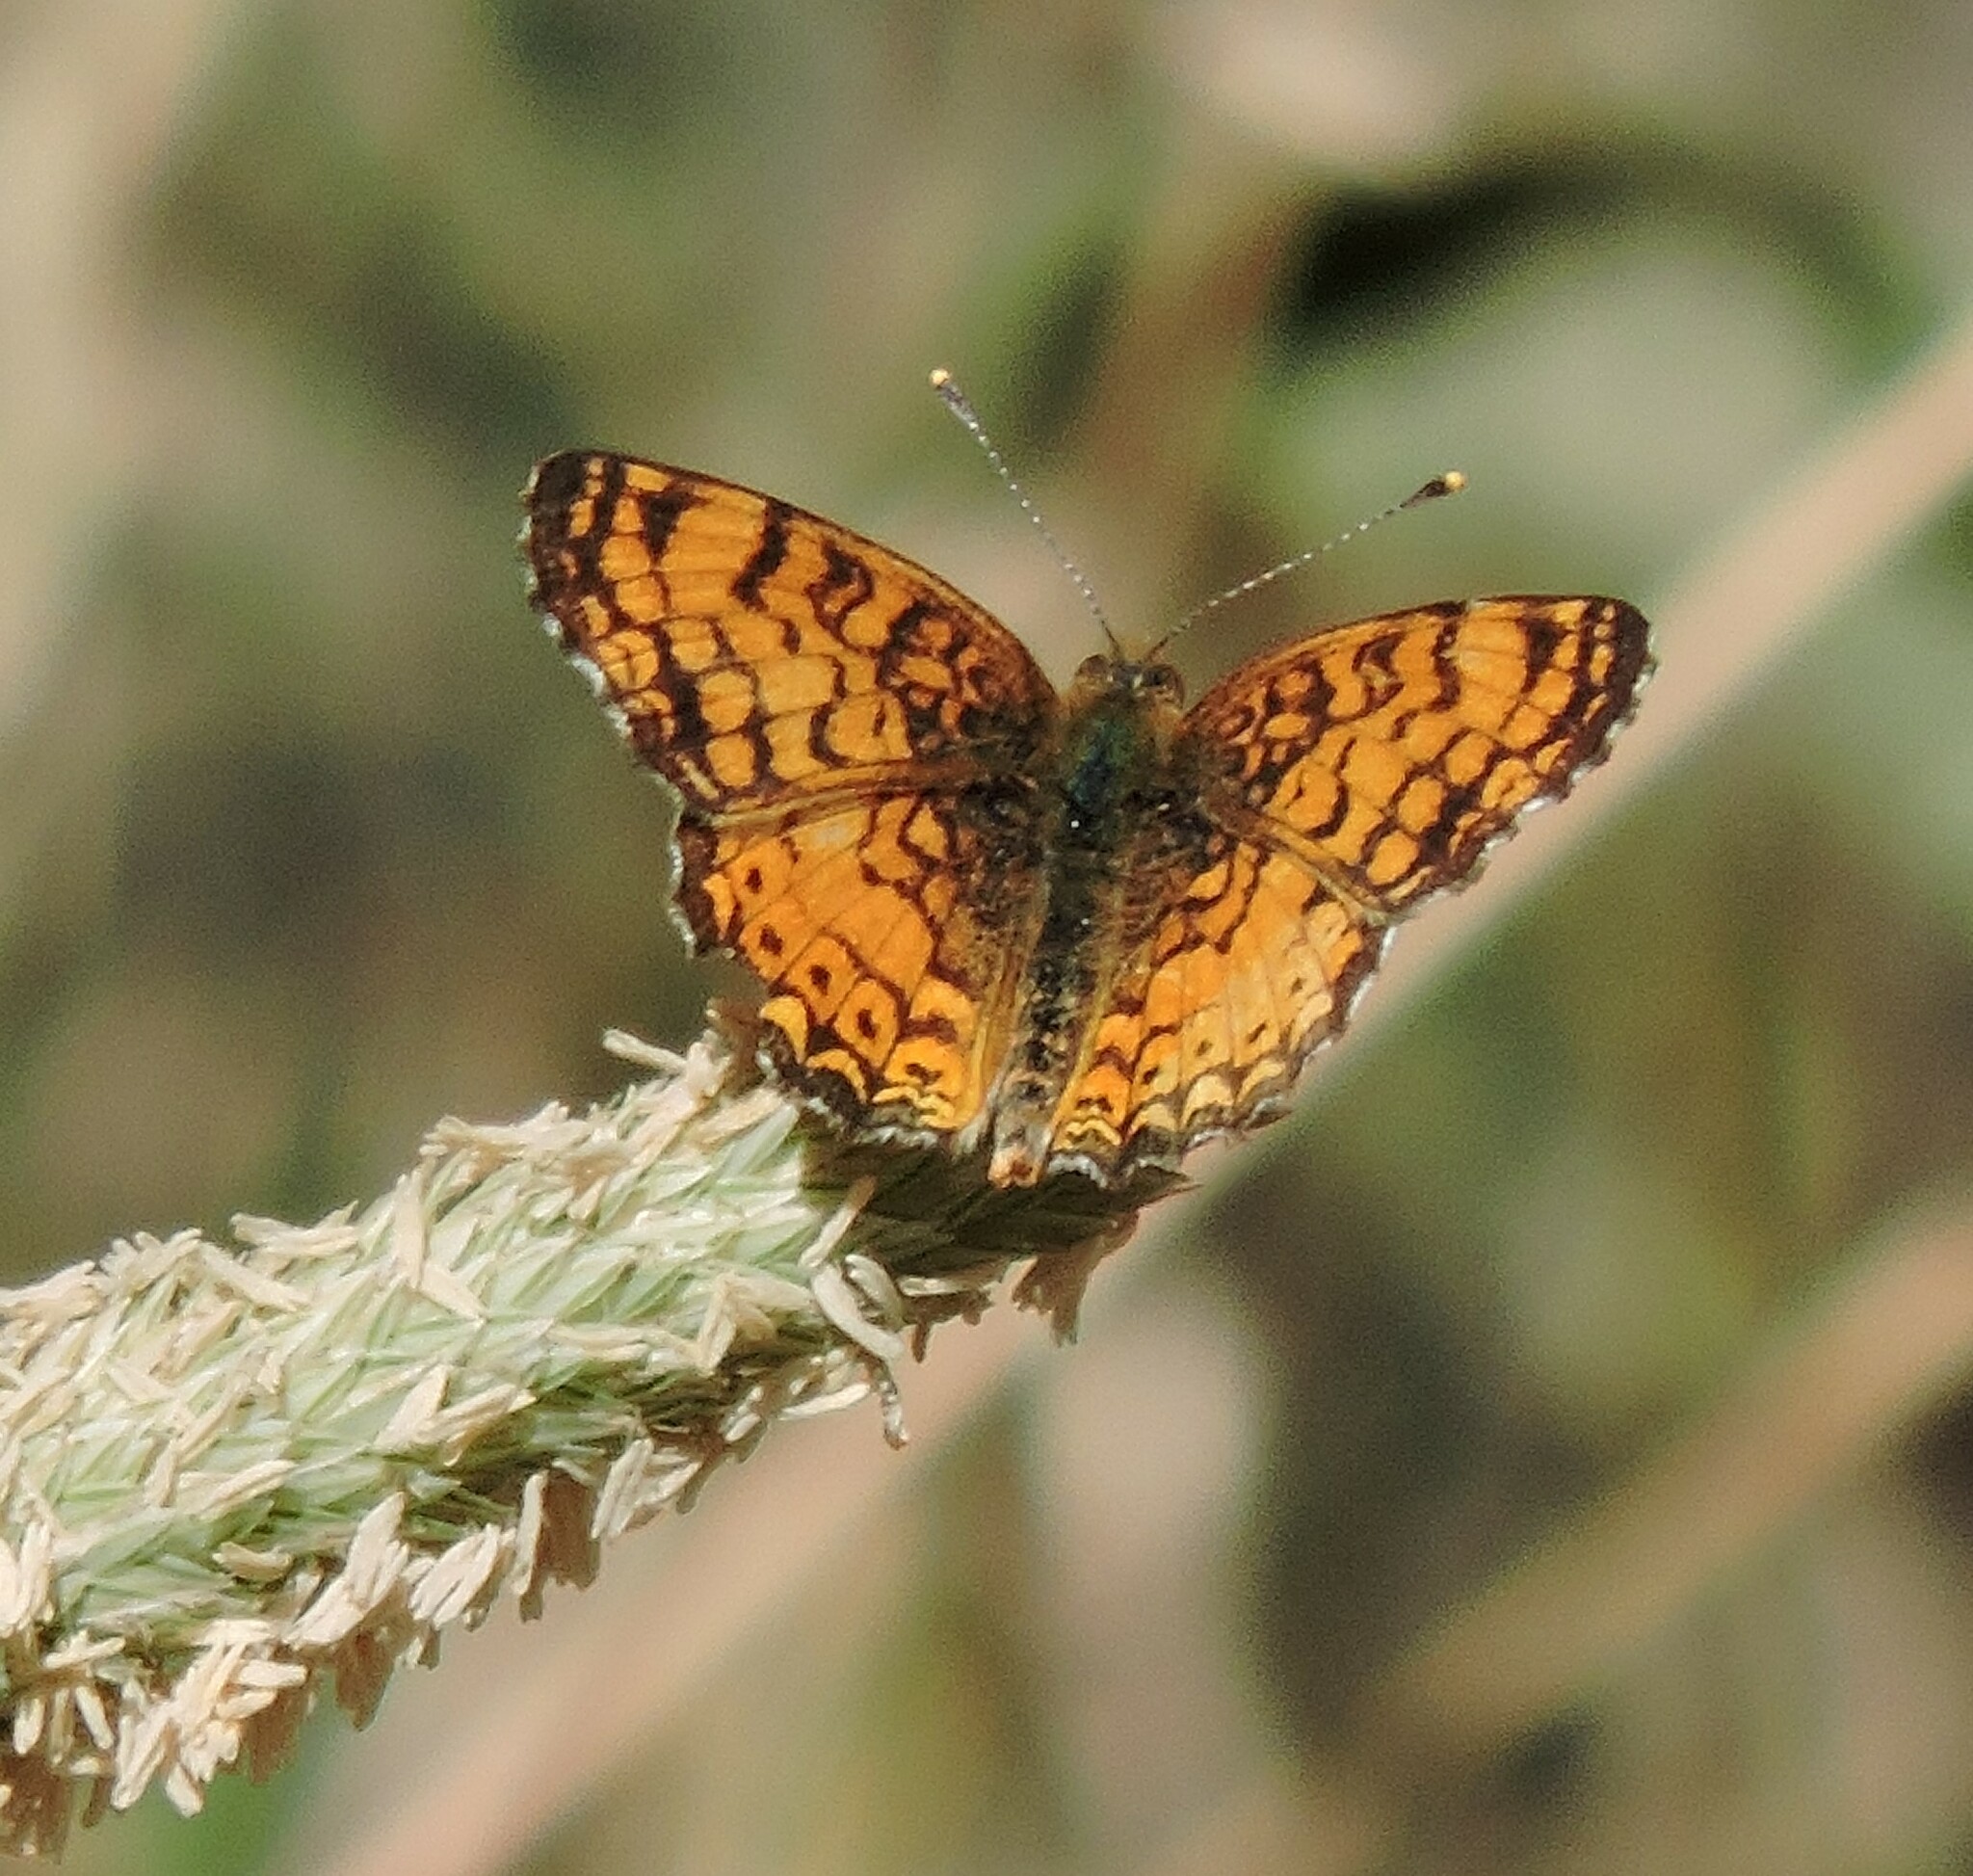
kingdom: Animalia
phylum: Arthropoda
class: Insecta
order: Lepidoptera
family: Nymphalidae
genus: Eresia
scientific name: Eresia aveyrona
